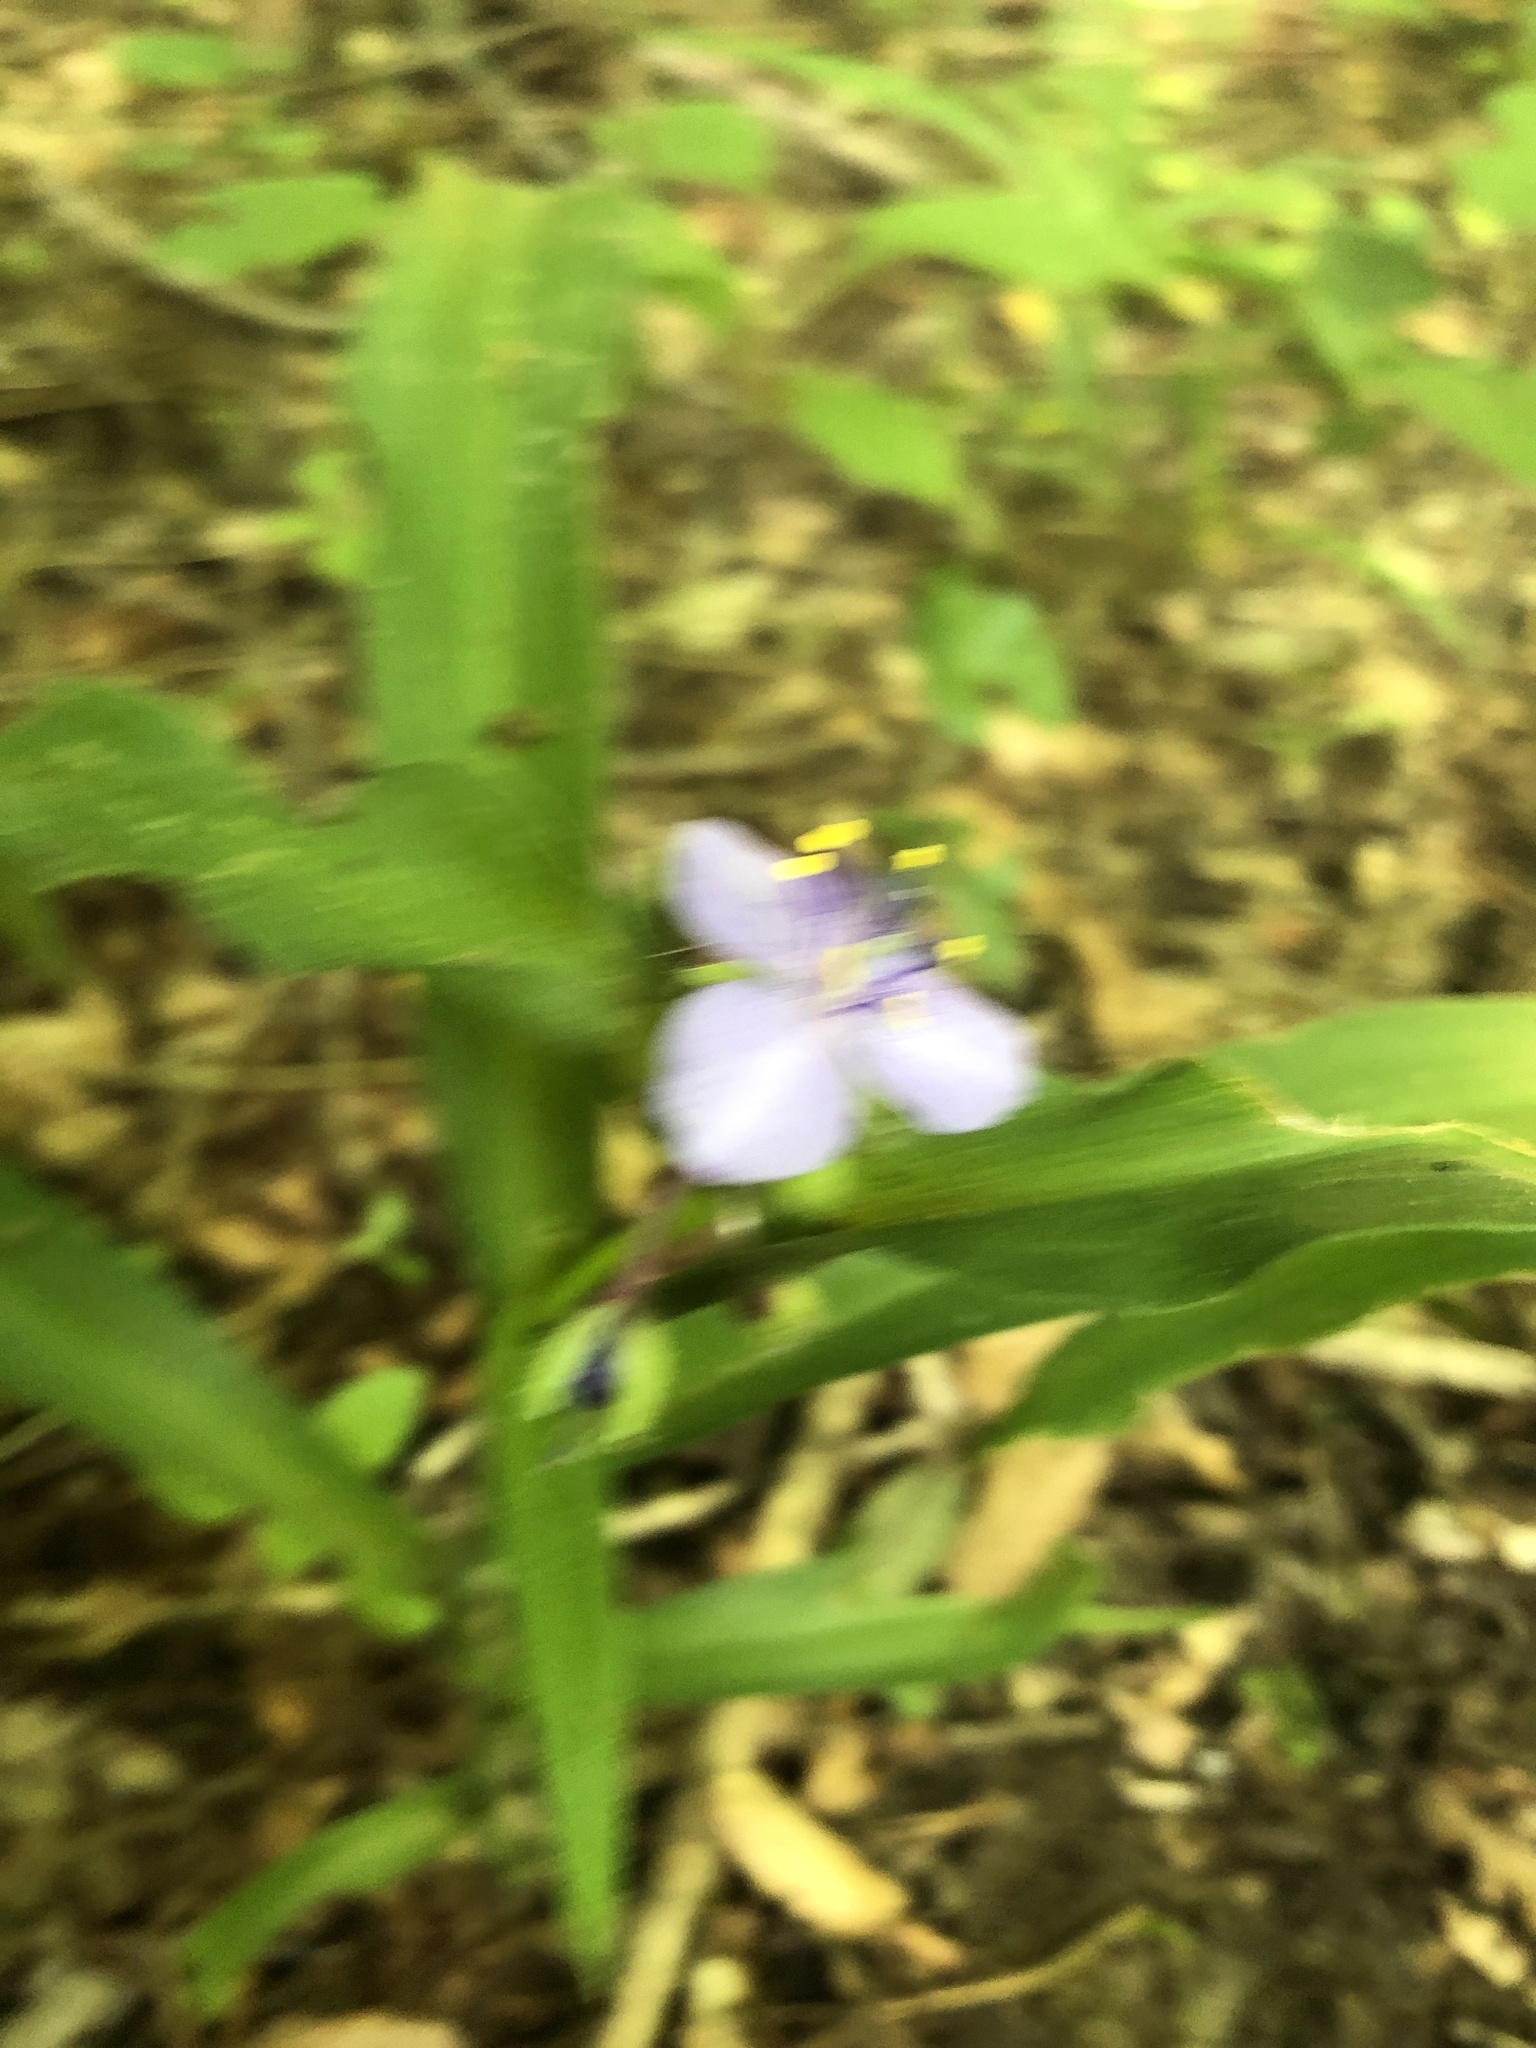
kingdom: Plantae
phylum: Tracheophyta
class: Liliopsida
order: Commelinales
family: Commelinaceae
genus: Tradescantia
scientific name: Tradescantia subaspera
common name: Wide-leaf spiderwort
